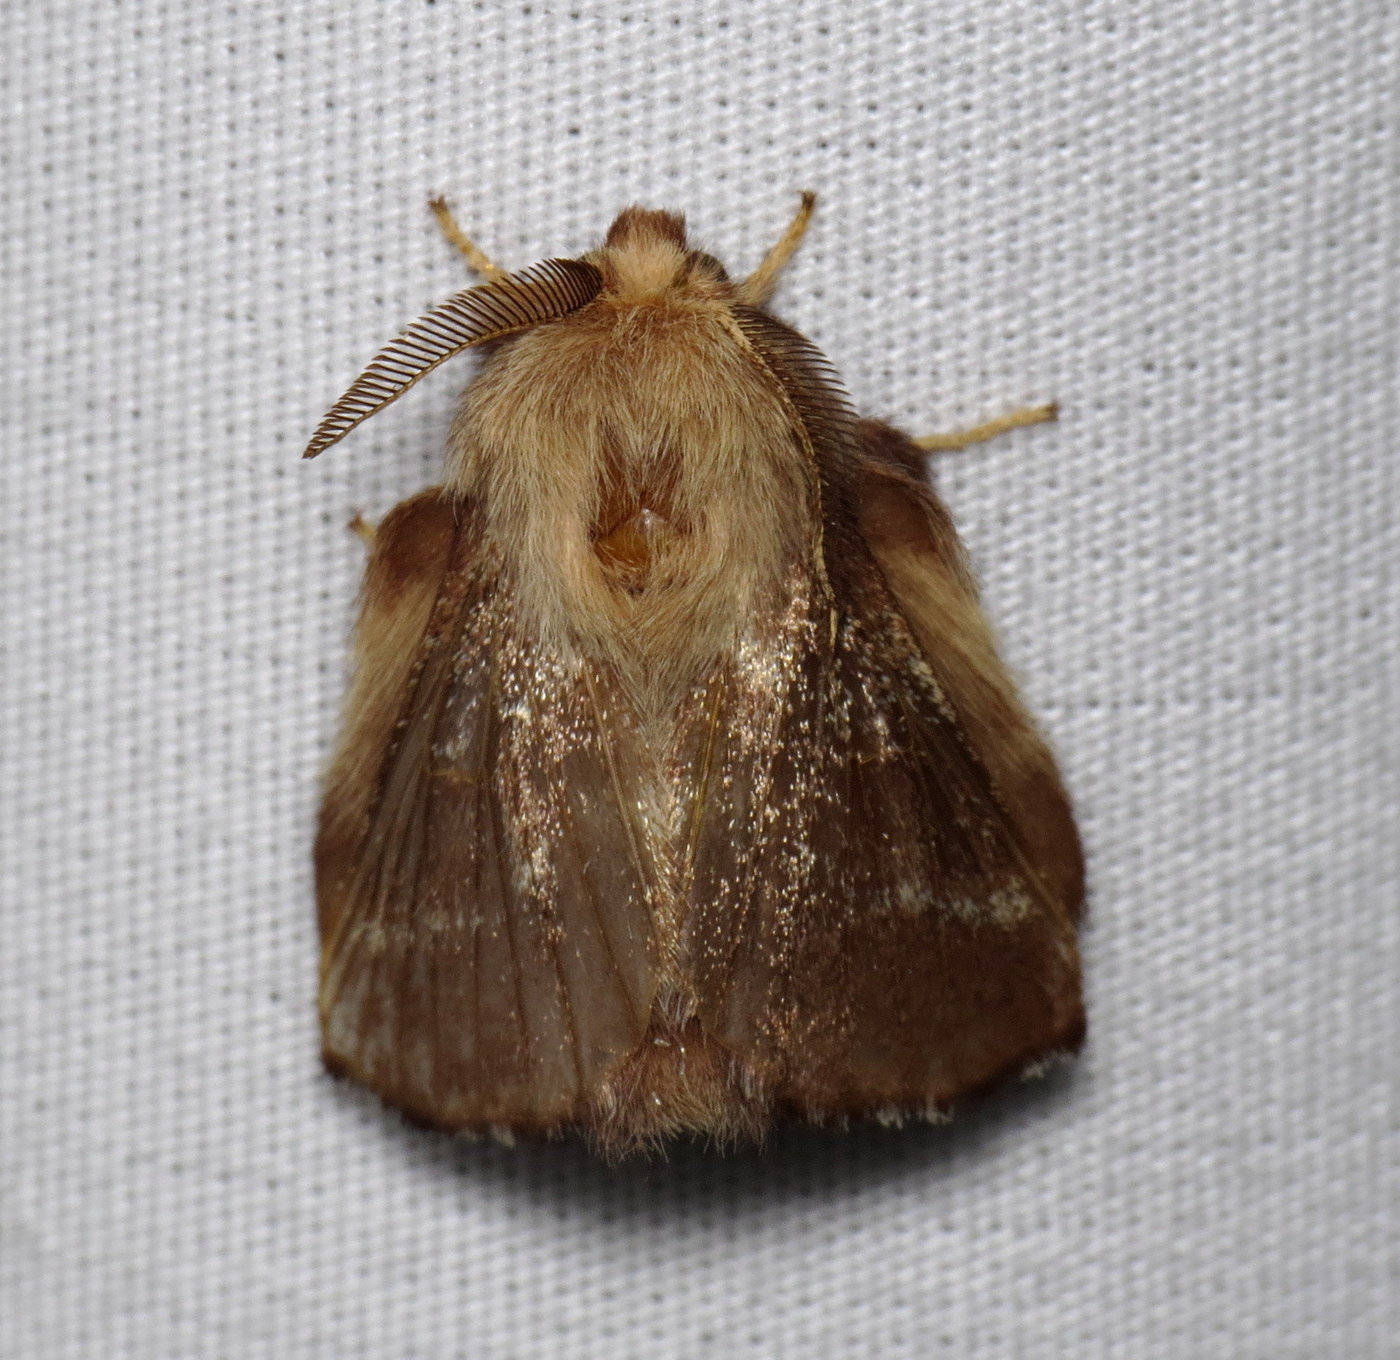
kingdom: Animalia
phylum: Arthropoda
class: Insecta
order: Lepidoptera
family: Lasiocampidae
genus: Malacosoma
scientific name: Malacosoma americana
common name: Eastern tent caterpillar moth
